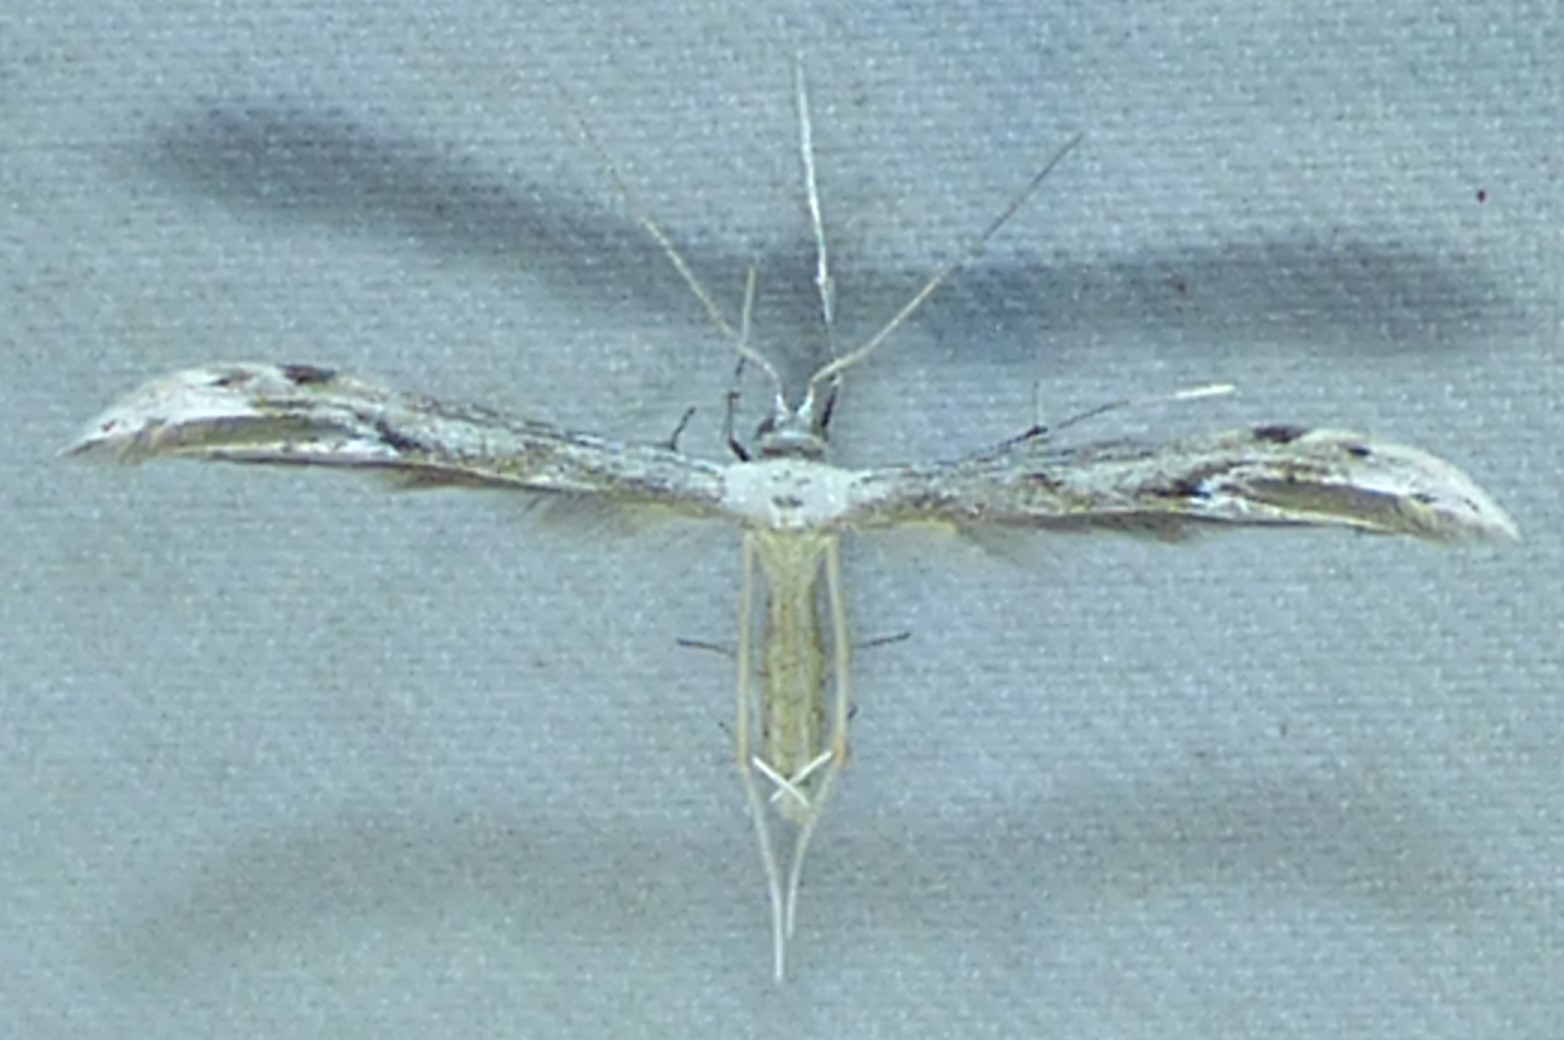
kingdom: Animalia
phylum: Arthropoda
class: Insecta
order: Lepidoptera
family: Pterophoridae
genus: Pselnophorus
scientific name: Pselnophorus belfragei
